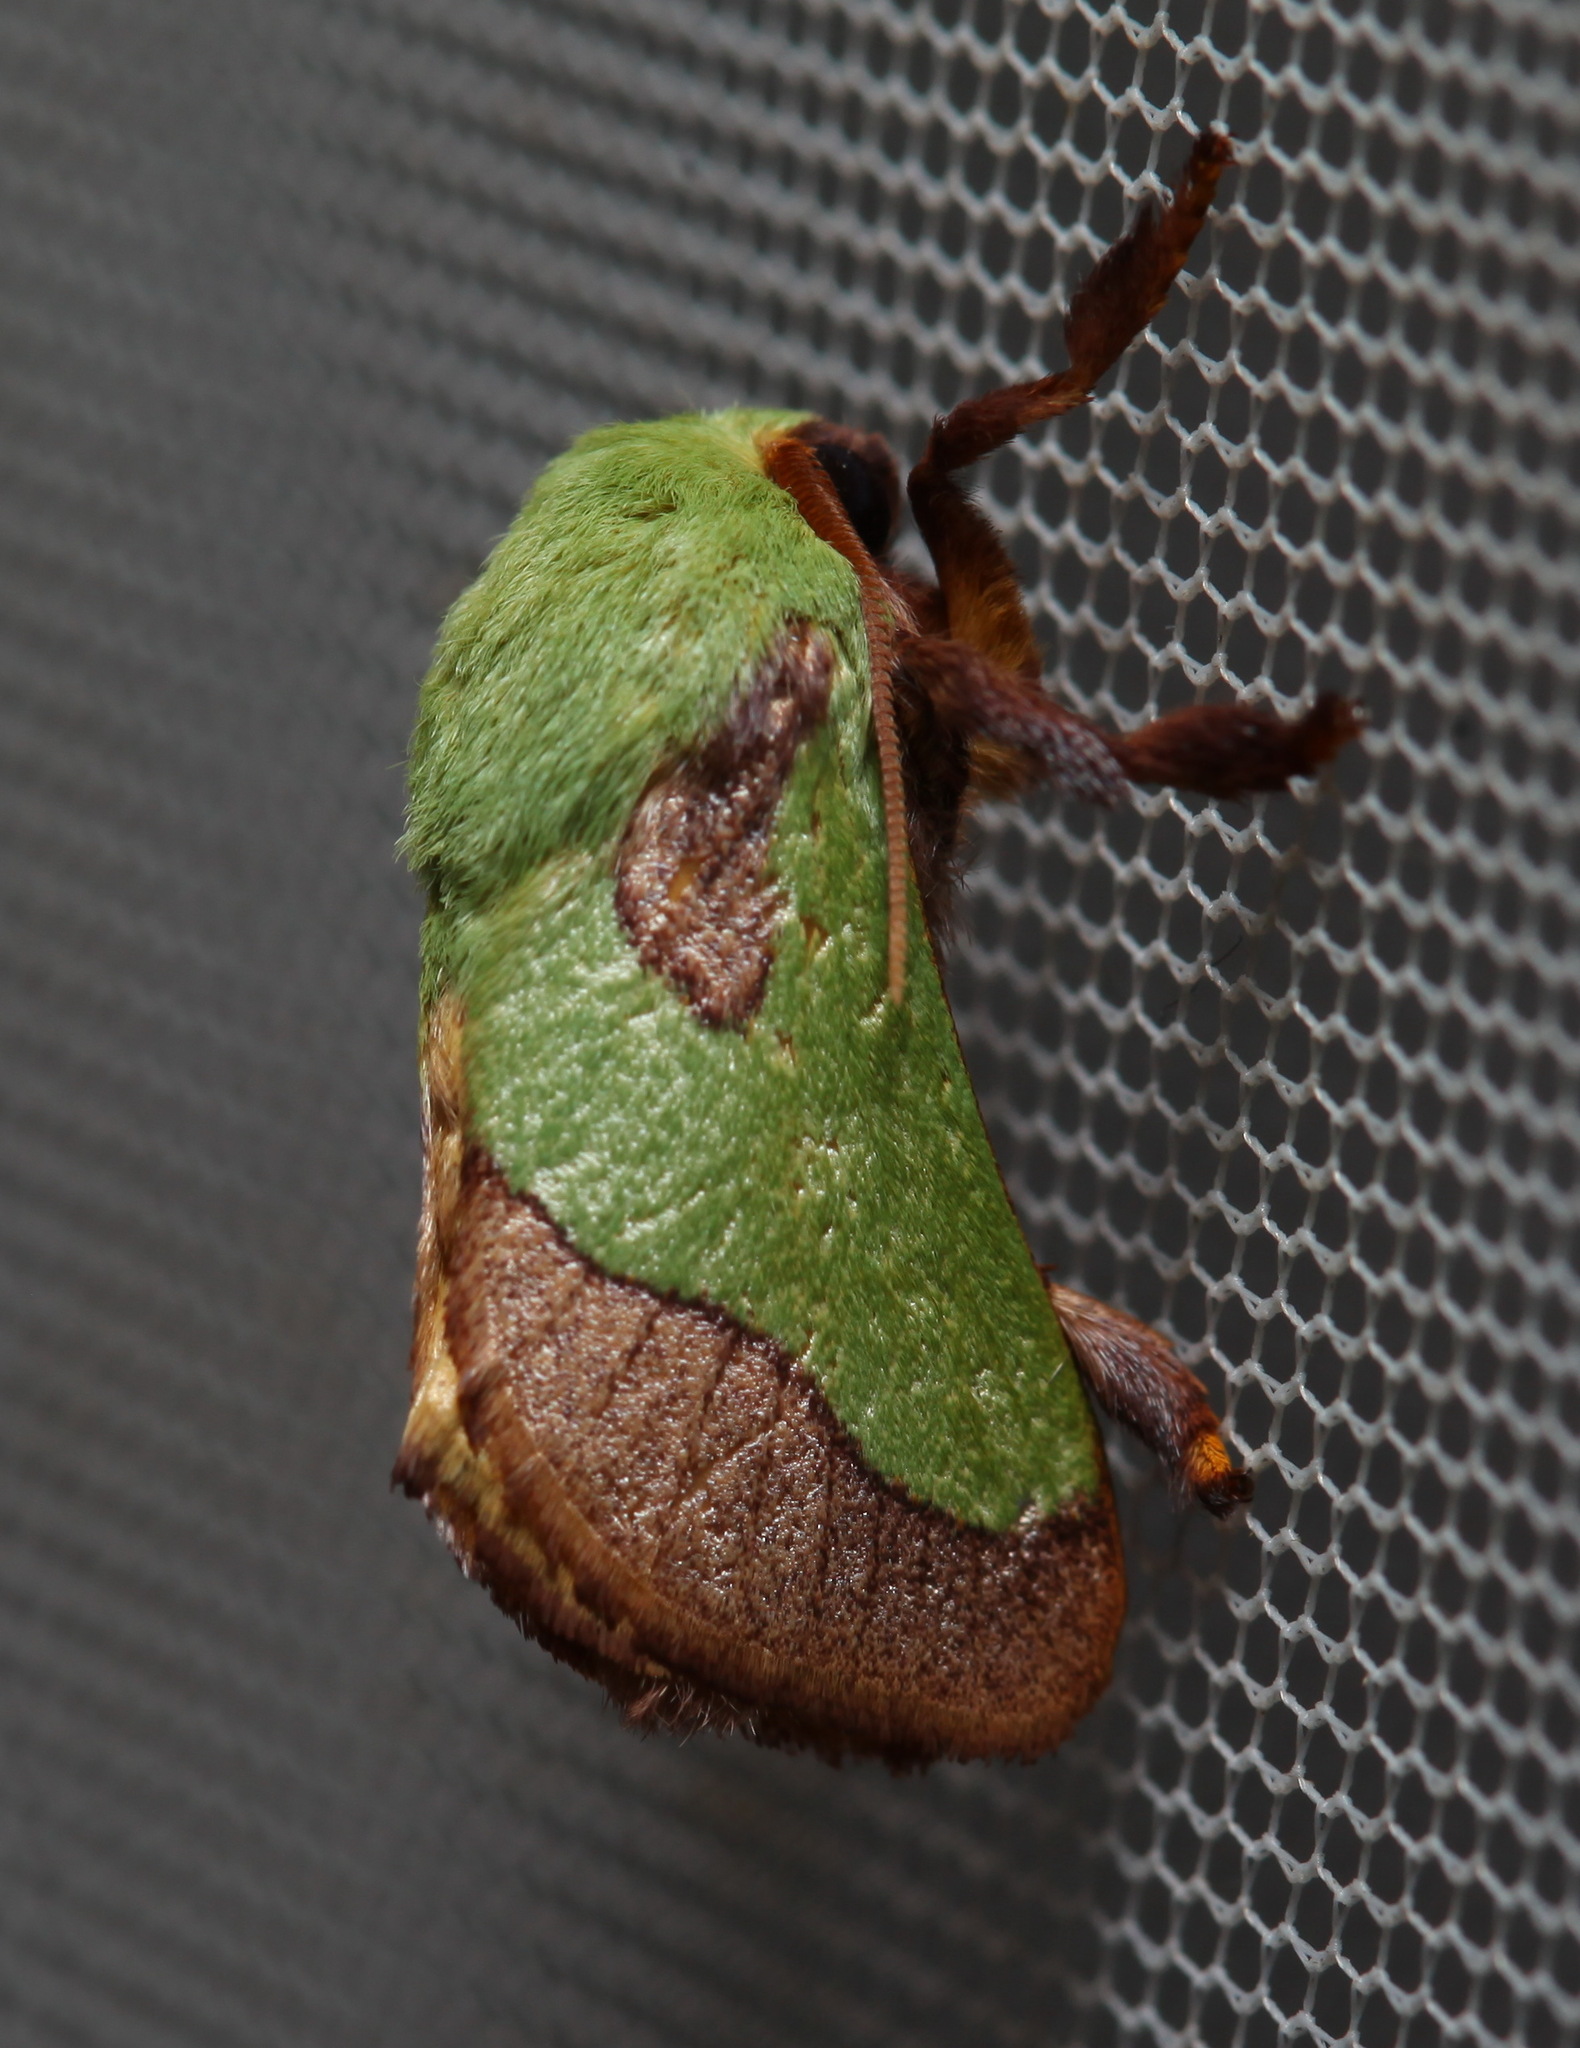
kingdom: Animalia
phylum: Arthropoda
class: Insecta
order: Lepidoptera
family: Limacodidae
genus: Parasa
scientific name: Parasa latistriga
